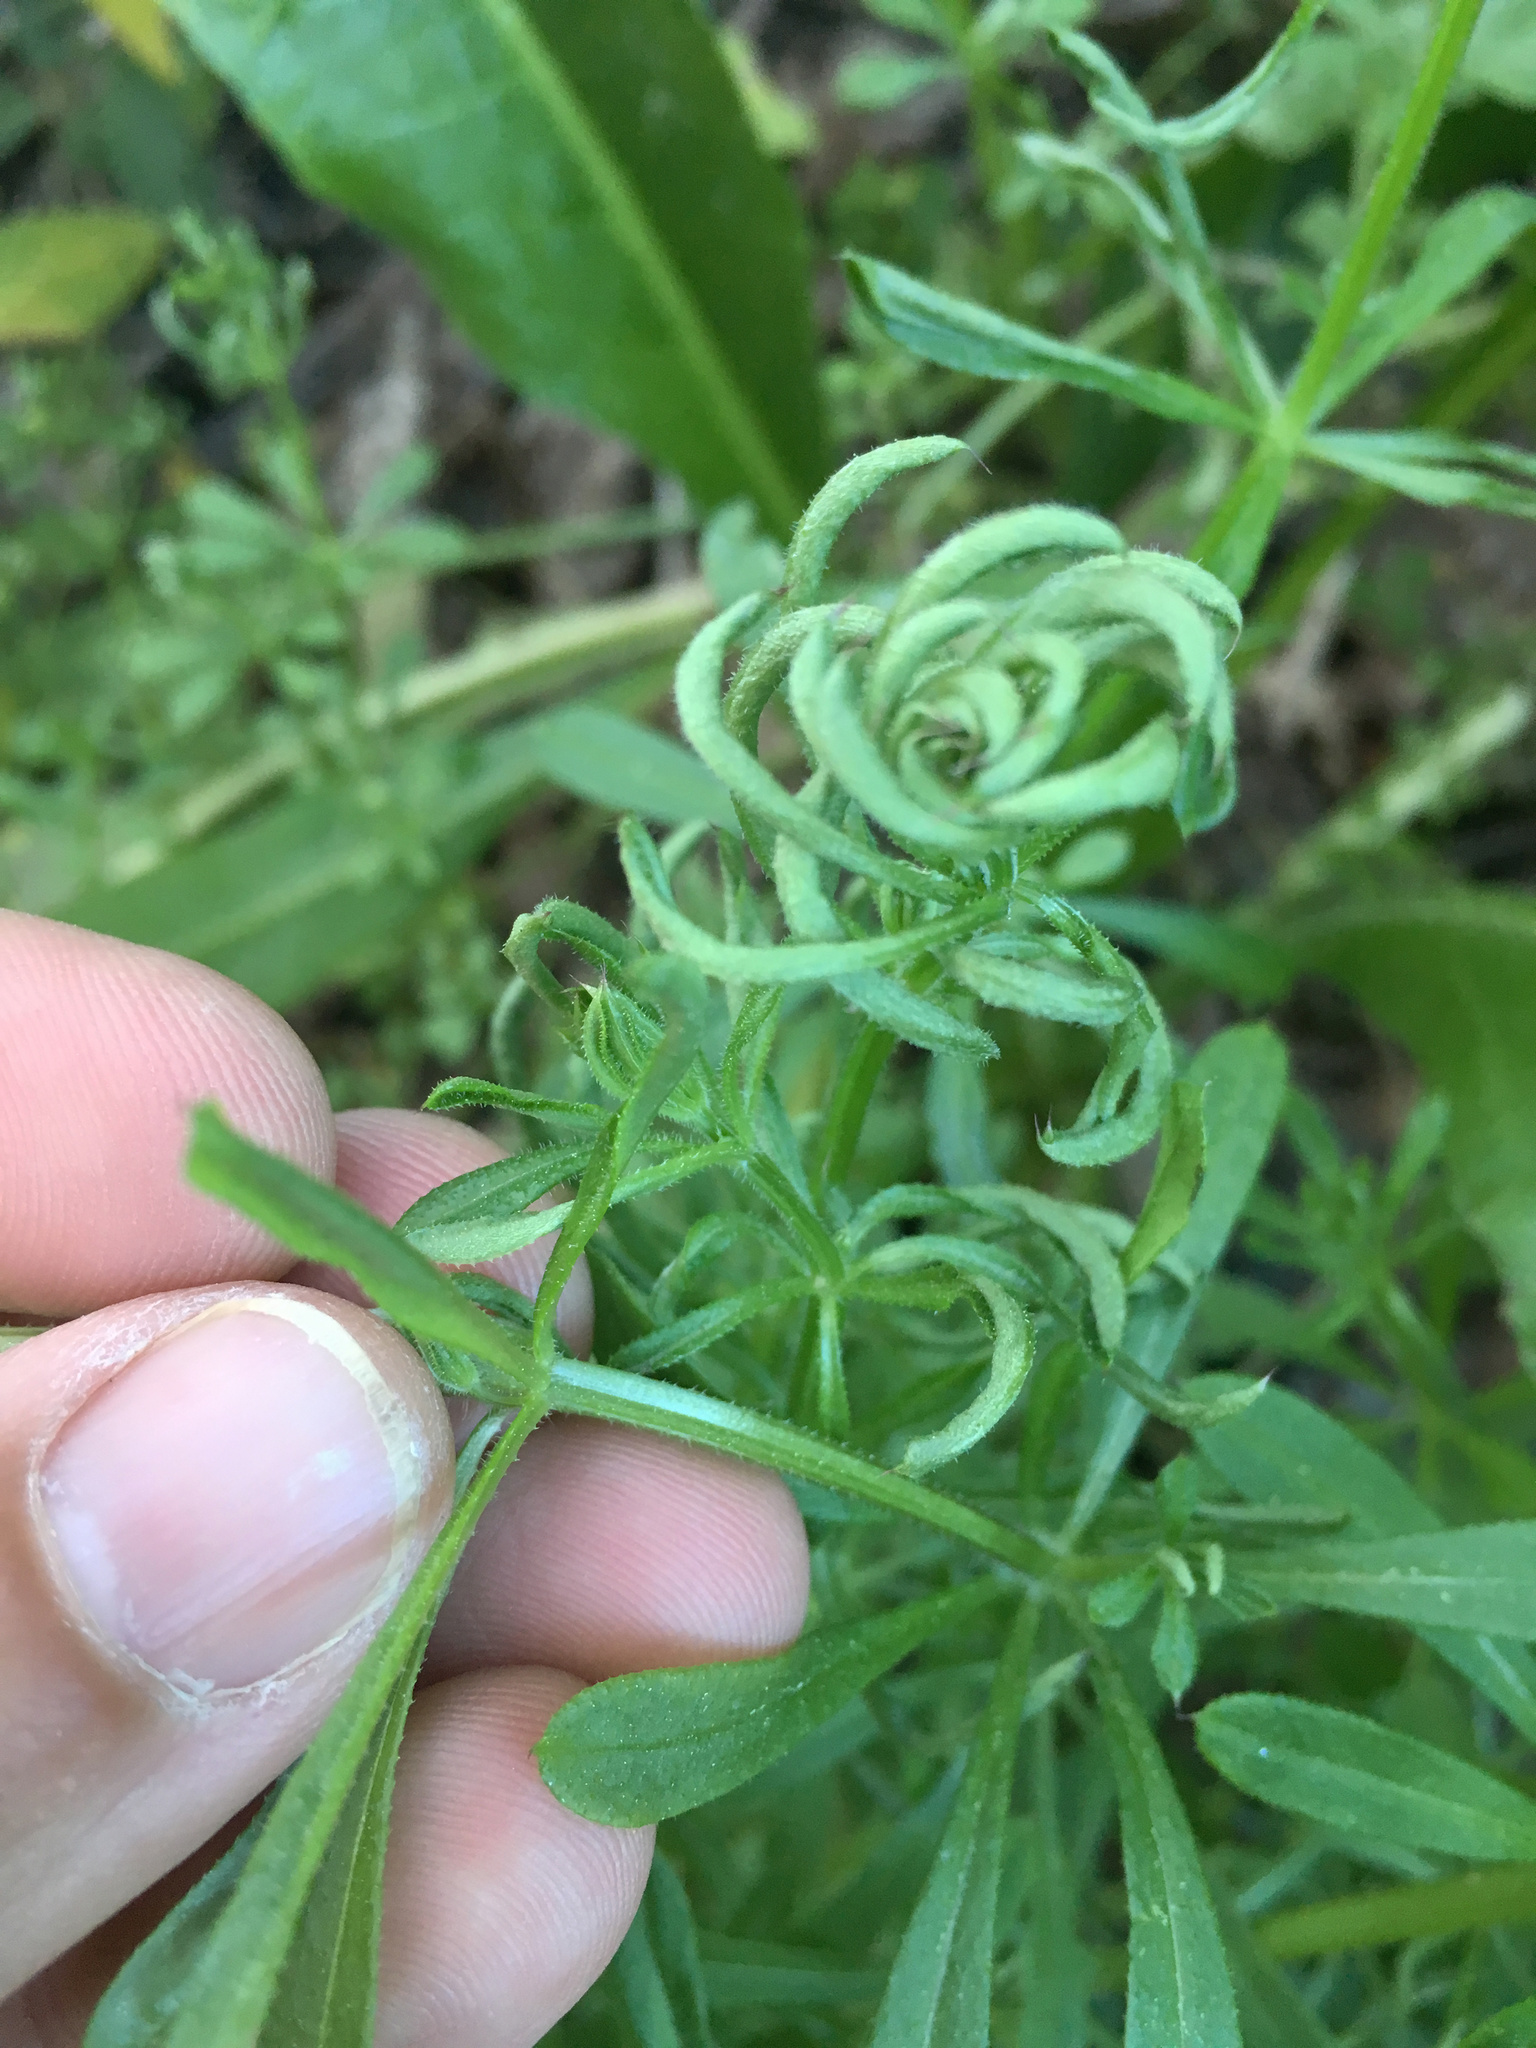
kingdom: Animalia
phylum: Arthropoda
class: Arachnida
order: Trombidiformes
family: Eriophyidae
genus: Cecidophyes
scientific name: Cecidophyes rouhollahi
